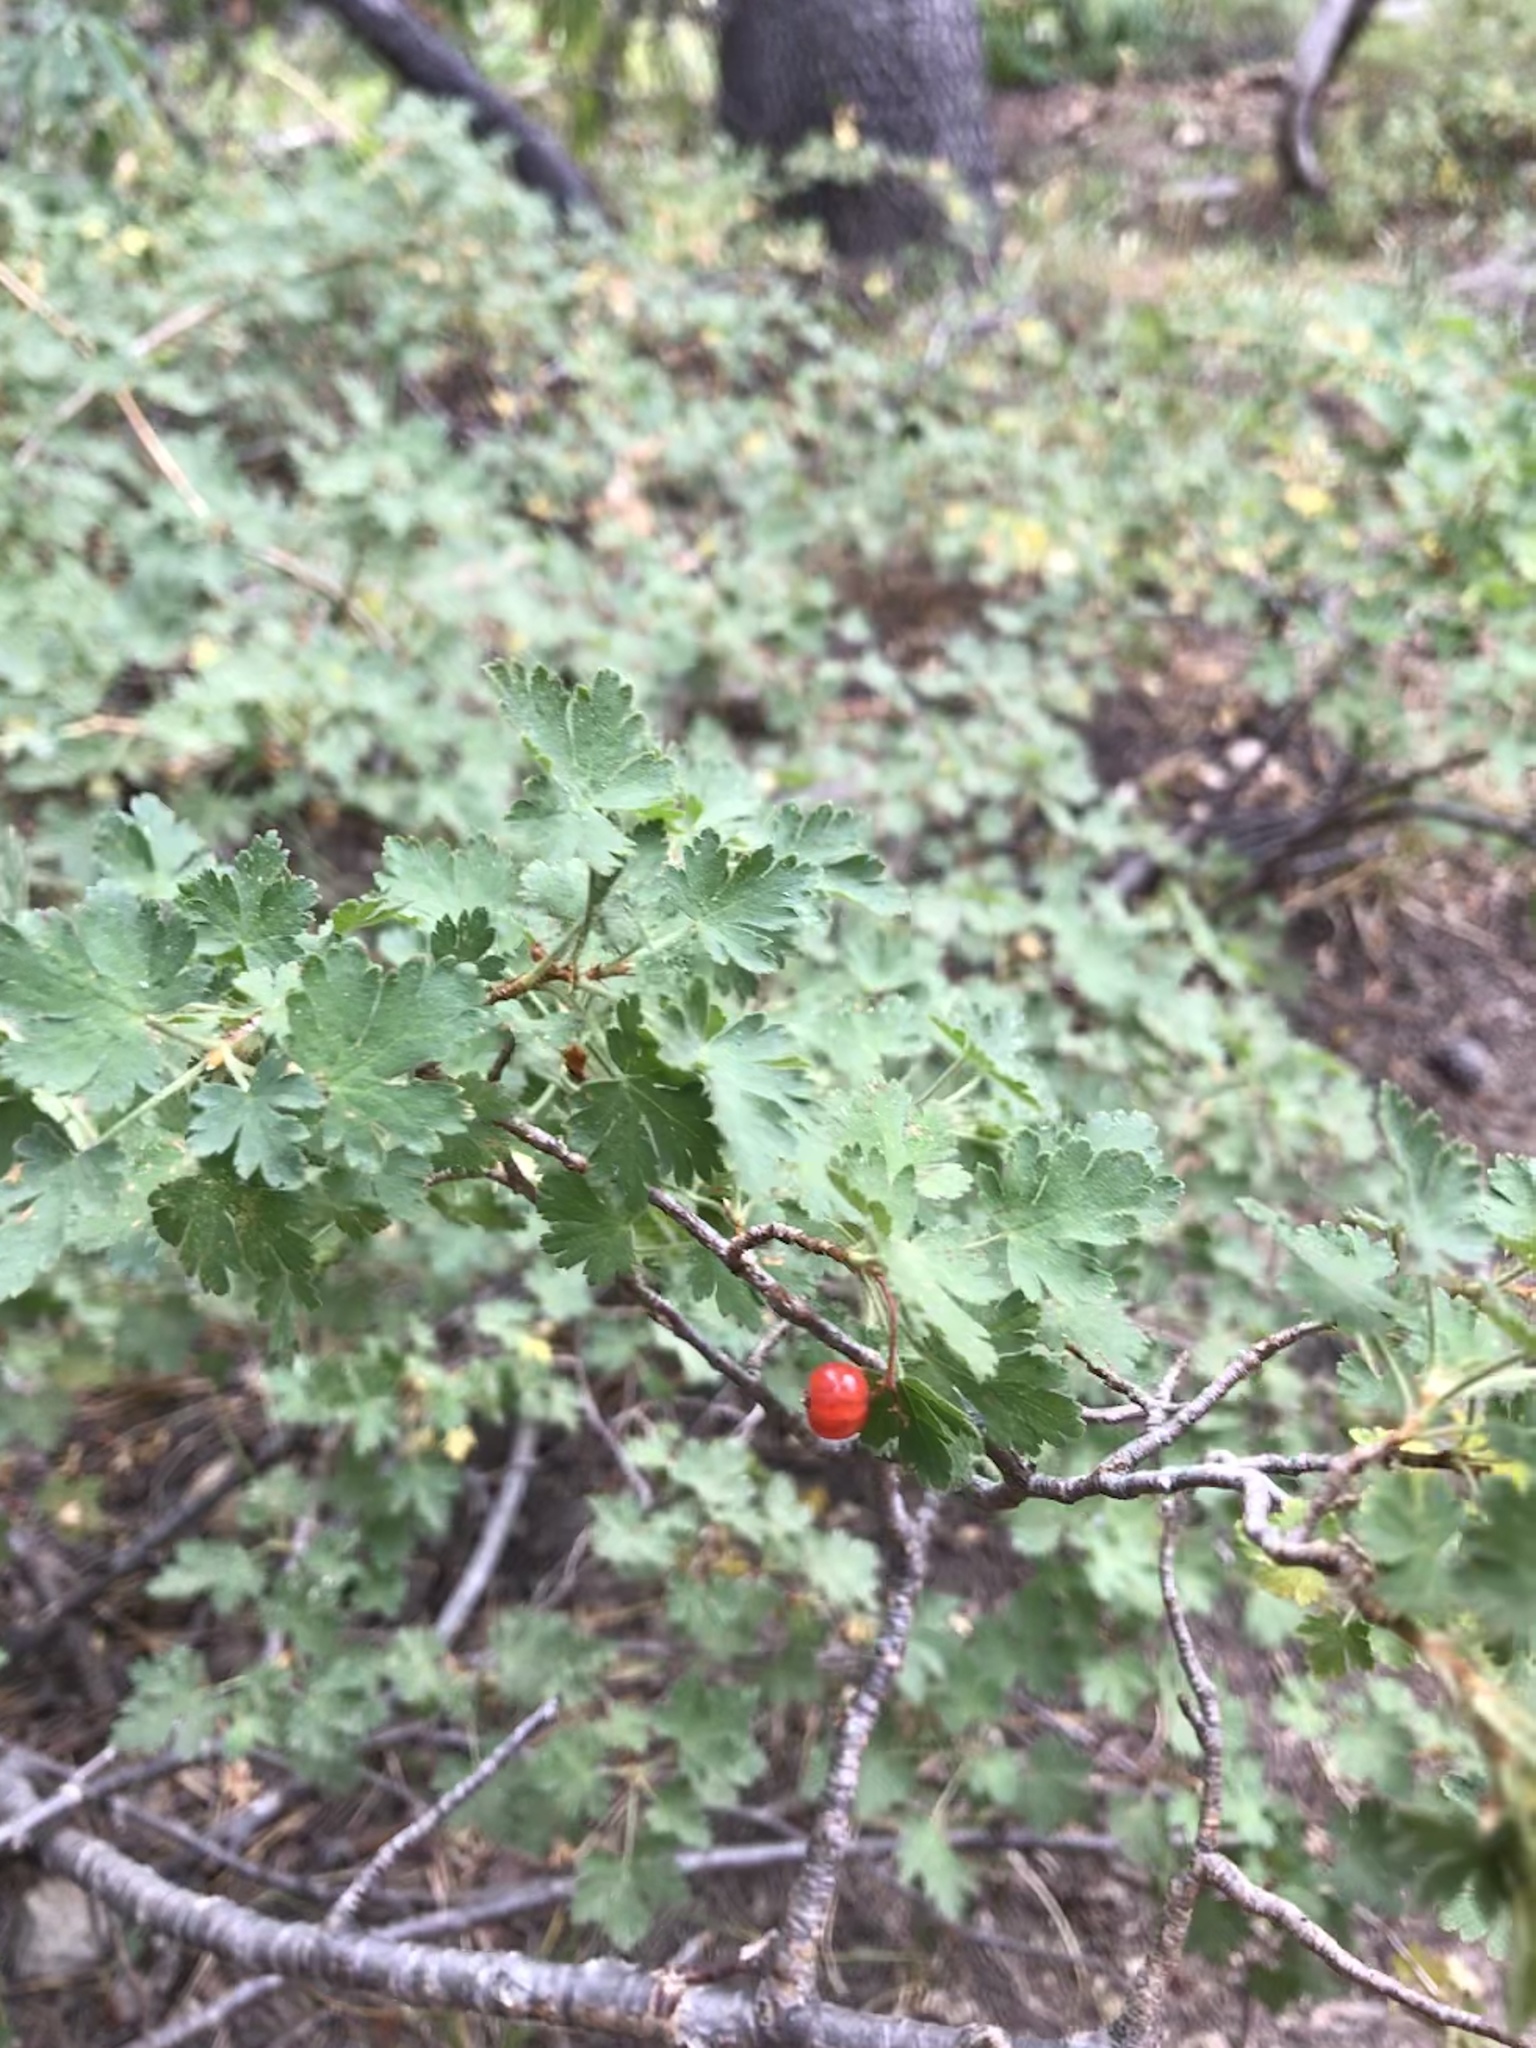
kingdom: Plantae
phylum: Tracheophyta
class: Magnoliopsida
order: Saxifragales
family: Grossulariaceae
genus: Ribes
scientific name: Ribes montigenum
